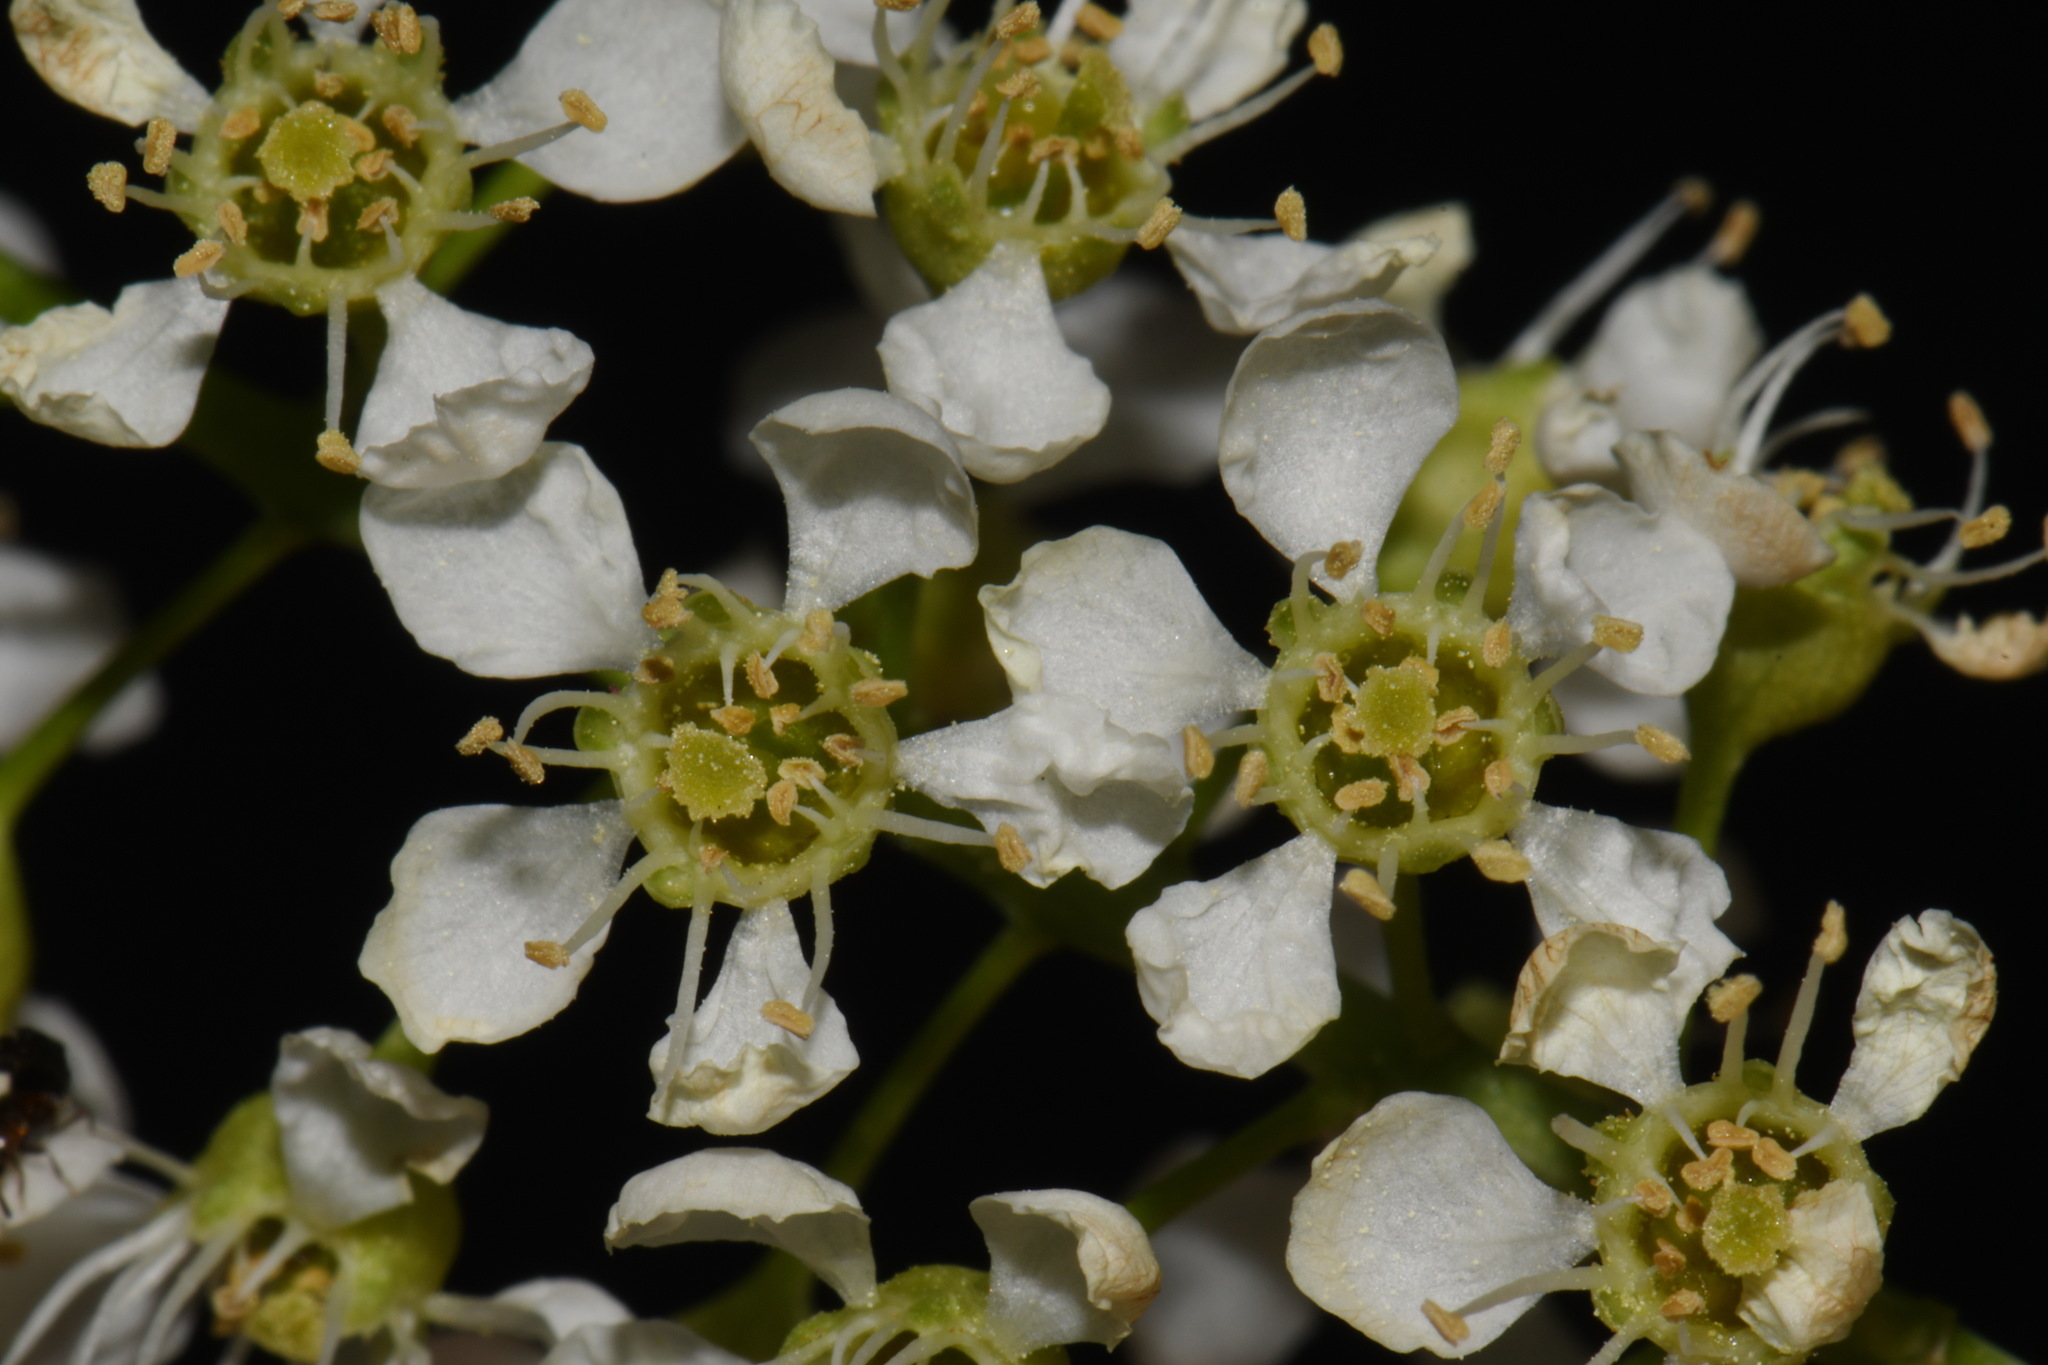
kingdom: Plantae
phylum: Tracheophyta
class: Magnoliopsida
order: Rosales
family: Rosaceae
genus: Prunus
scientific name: Prunus serotina
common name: Black cherry
